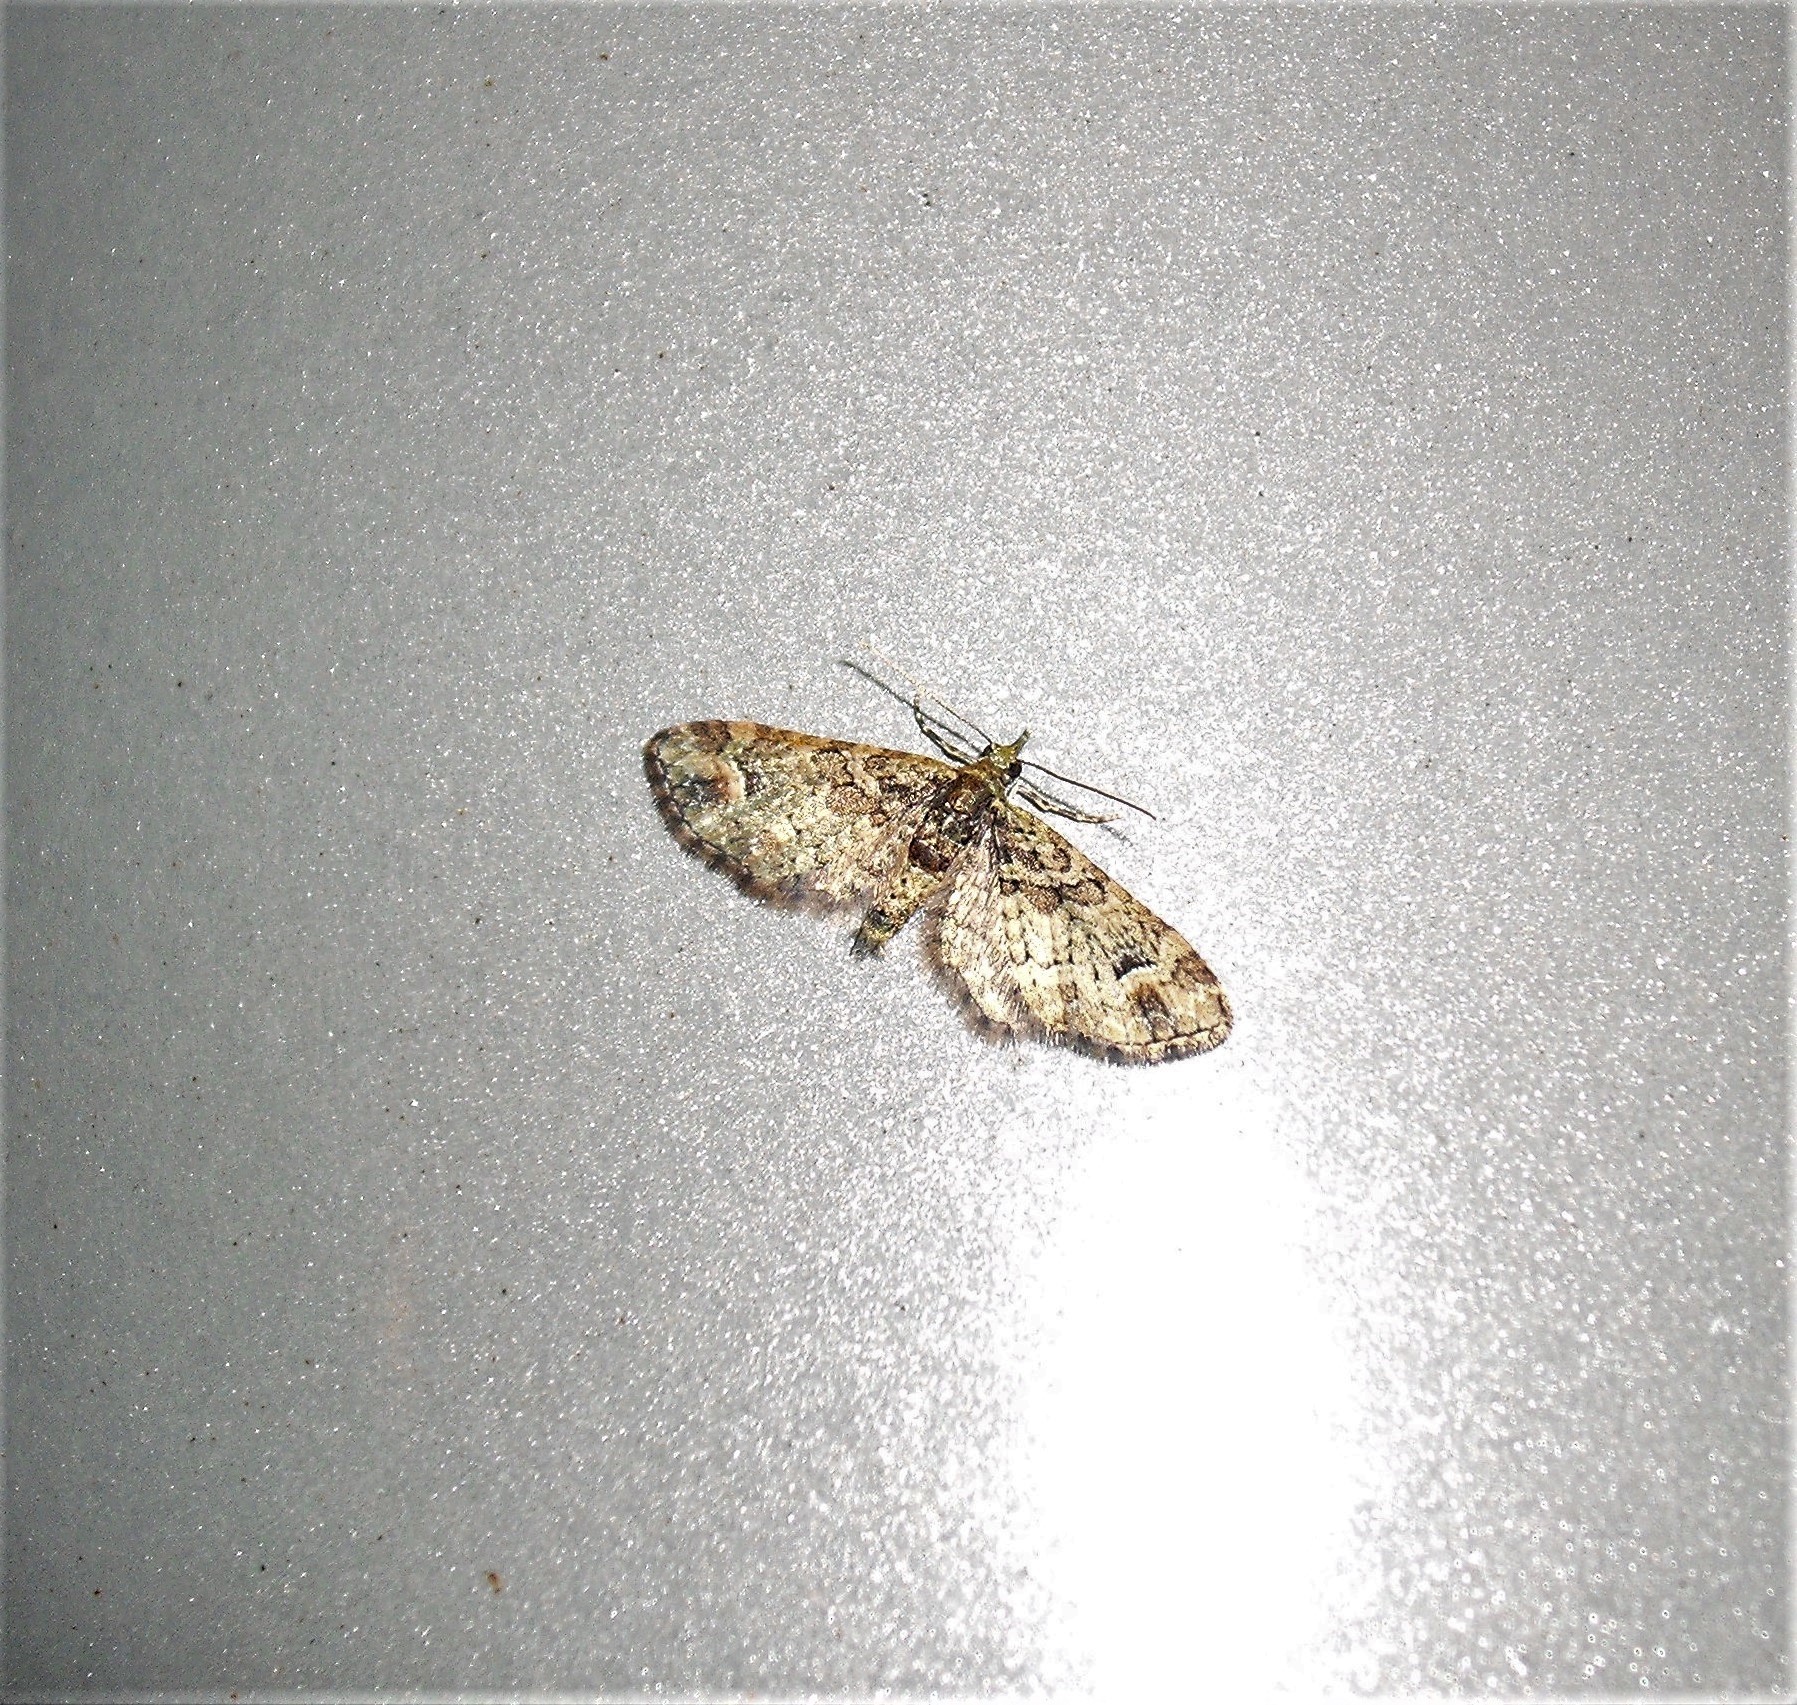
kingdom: Animalia
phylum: Arthropoda
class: Insecta
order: Lepidoptera
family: Geometridae
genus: Idaea
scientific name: Idaea mutanda
